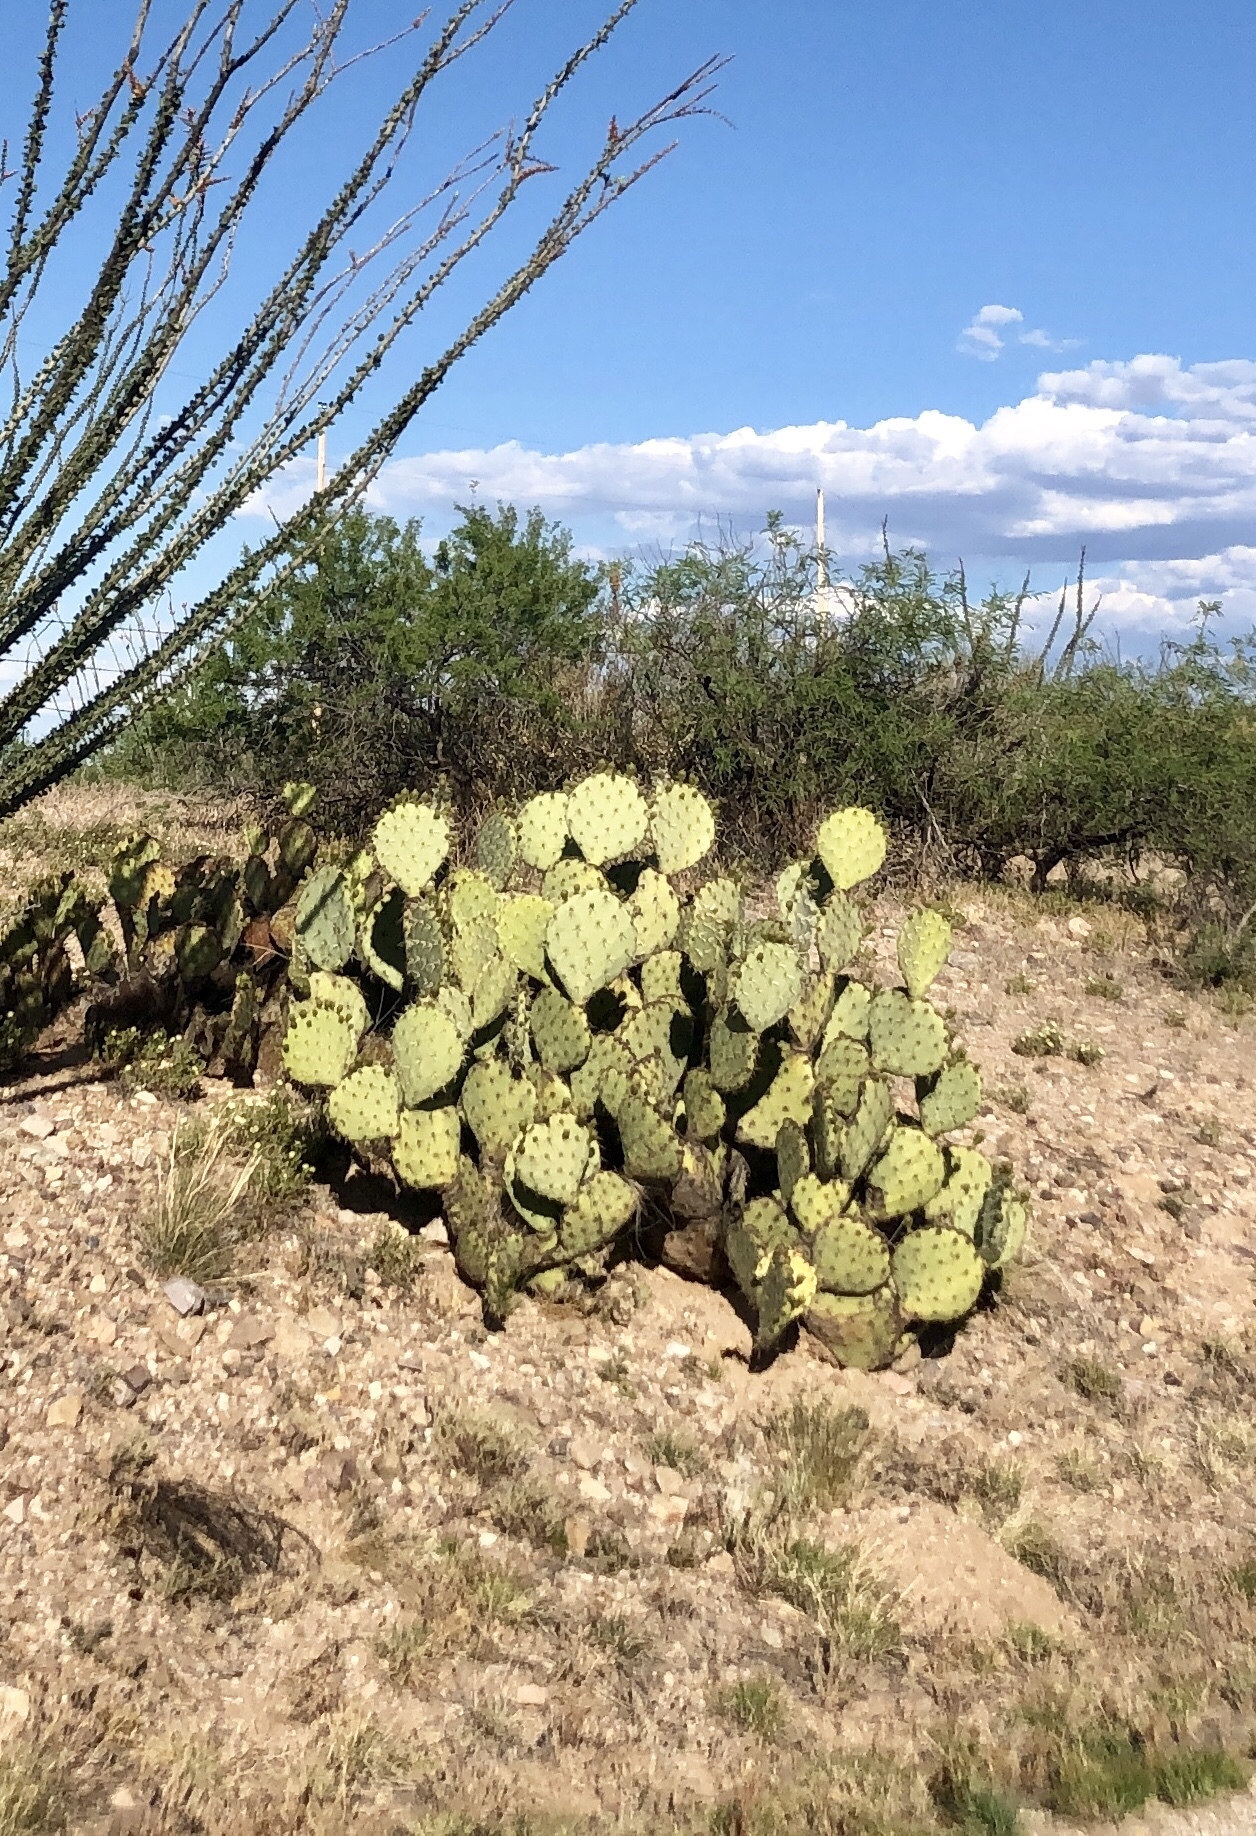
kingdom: Plantae
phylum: Tracheophyta
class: Magnoliopsida
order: Caryophyllales
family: Cactaceae
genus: Opuntia
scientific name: Opuntia engelmannii
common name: Cactus-apple
